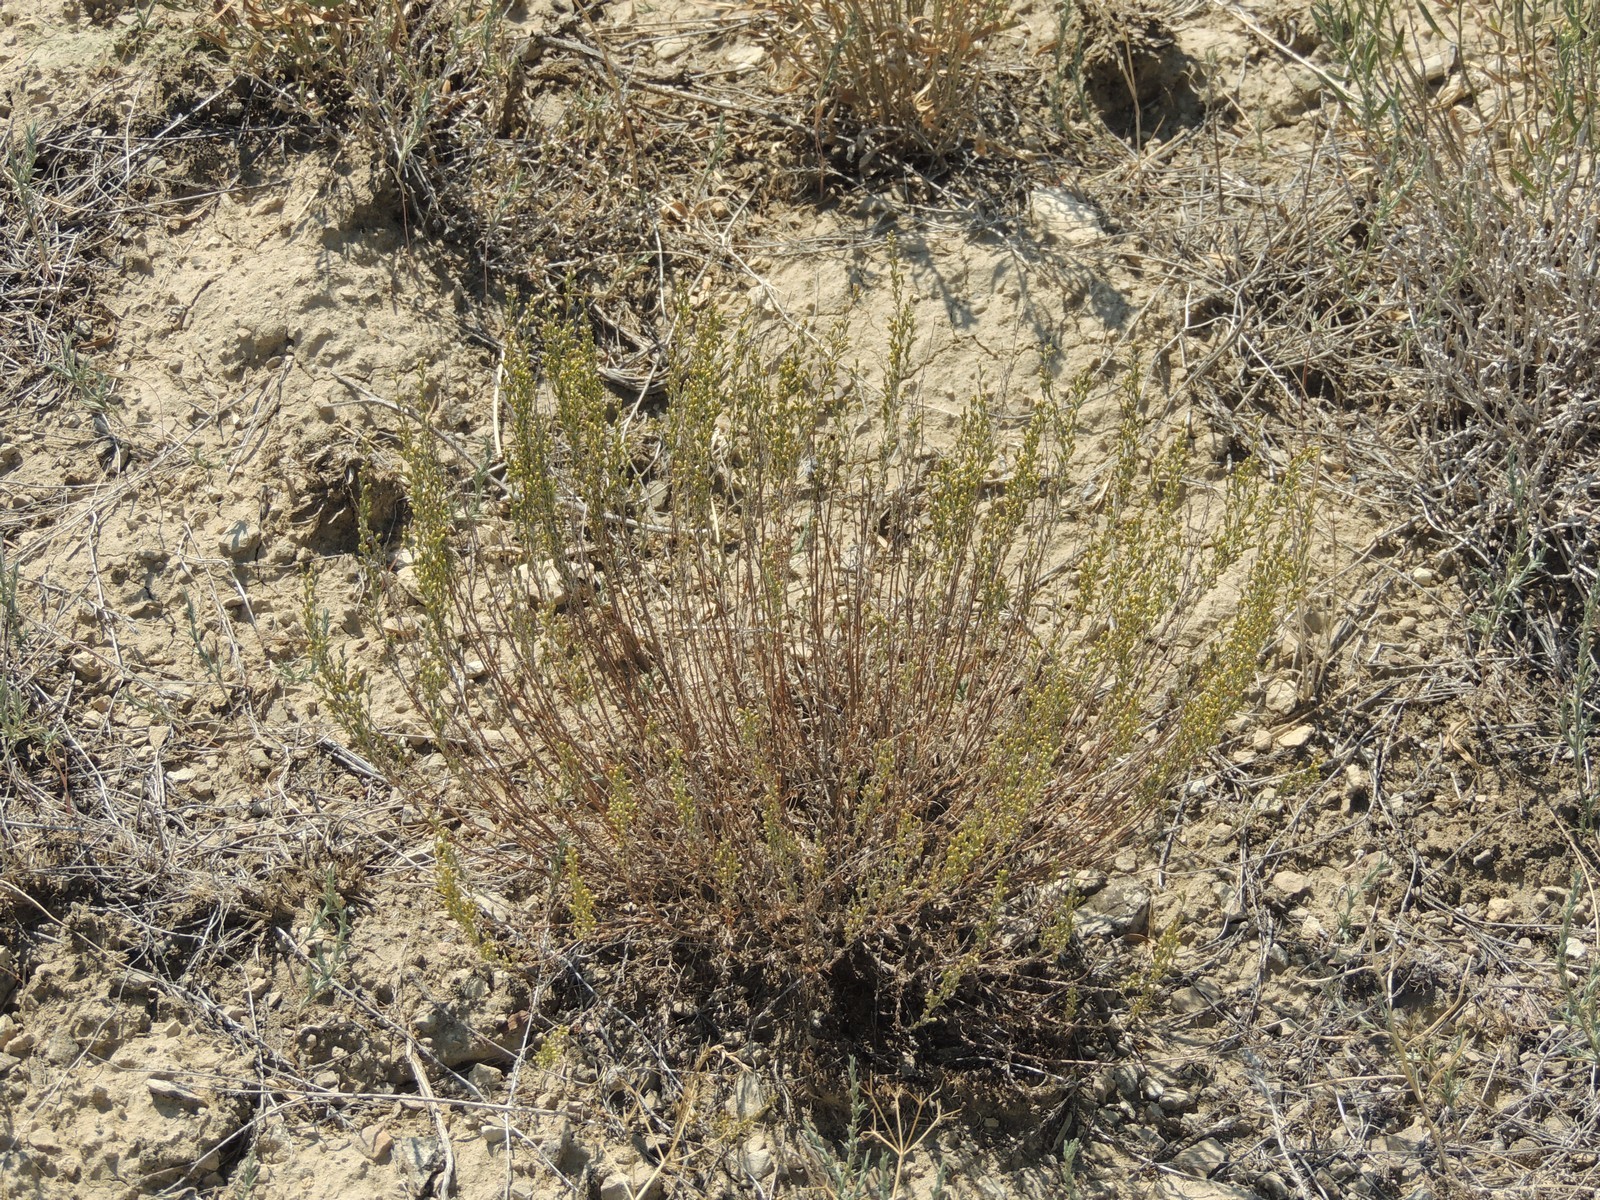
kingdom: Plantae
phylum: Tracheophyta
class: Magnoliopsida
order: Asterales
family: Asteraceae
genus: Artemisia
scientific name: Artemisia pauciflora
